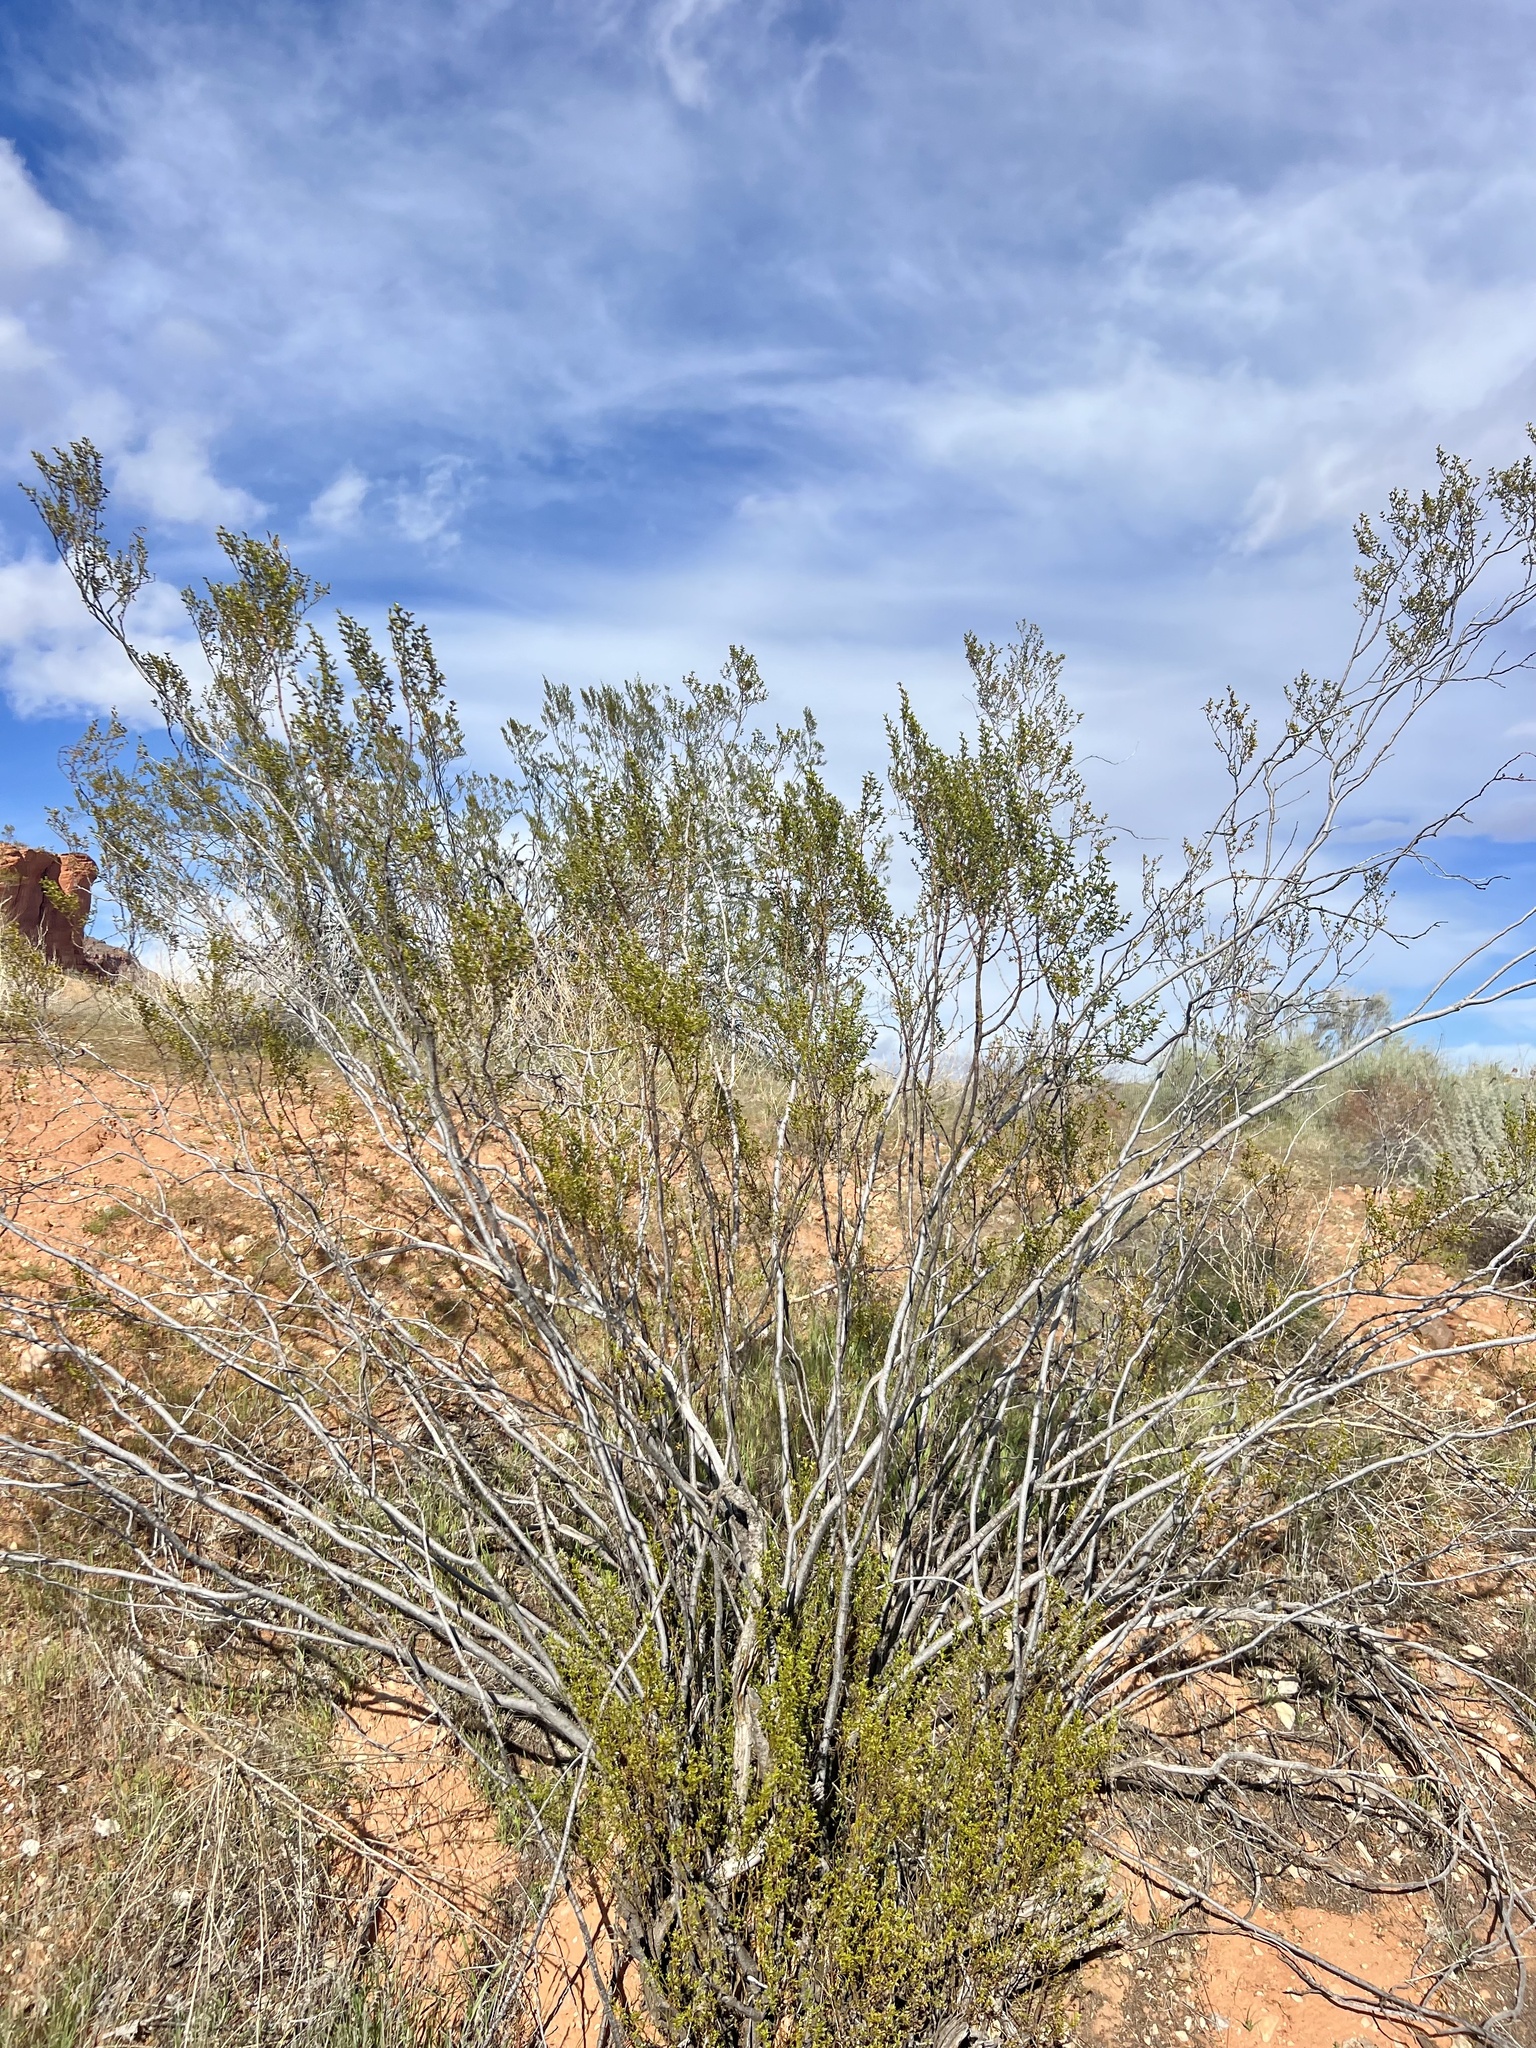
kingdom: Plantae
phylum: Tracheophyta
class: Magnoliopsida
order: Zygophyllales
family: Zygophyllaceae
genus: Larrea
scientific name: Larrea tridentata
